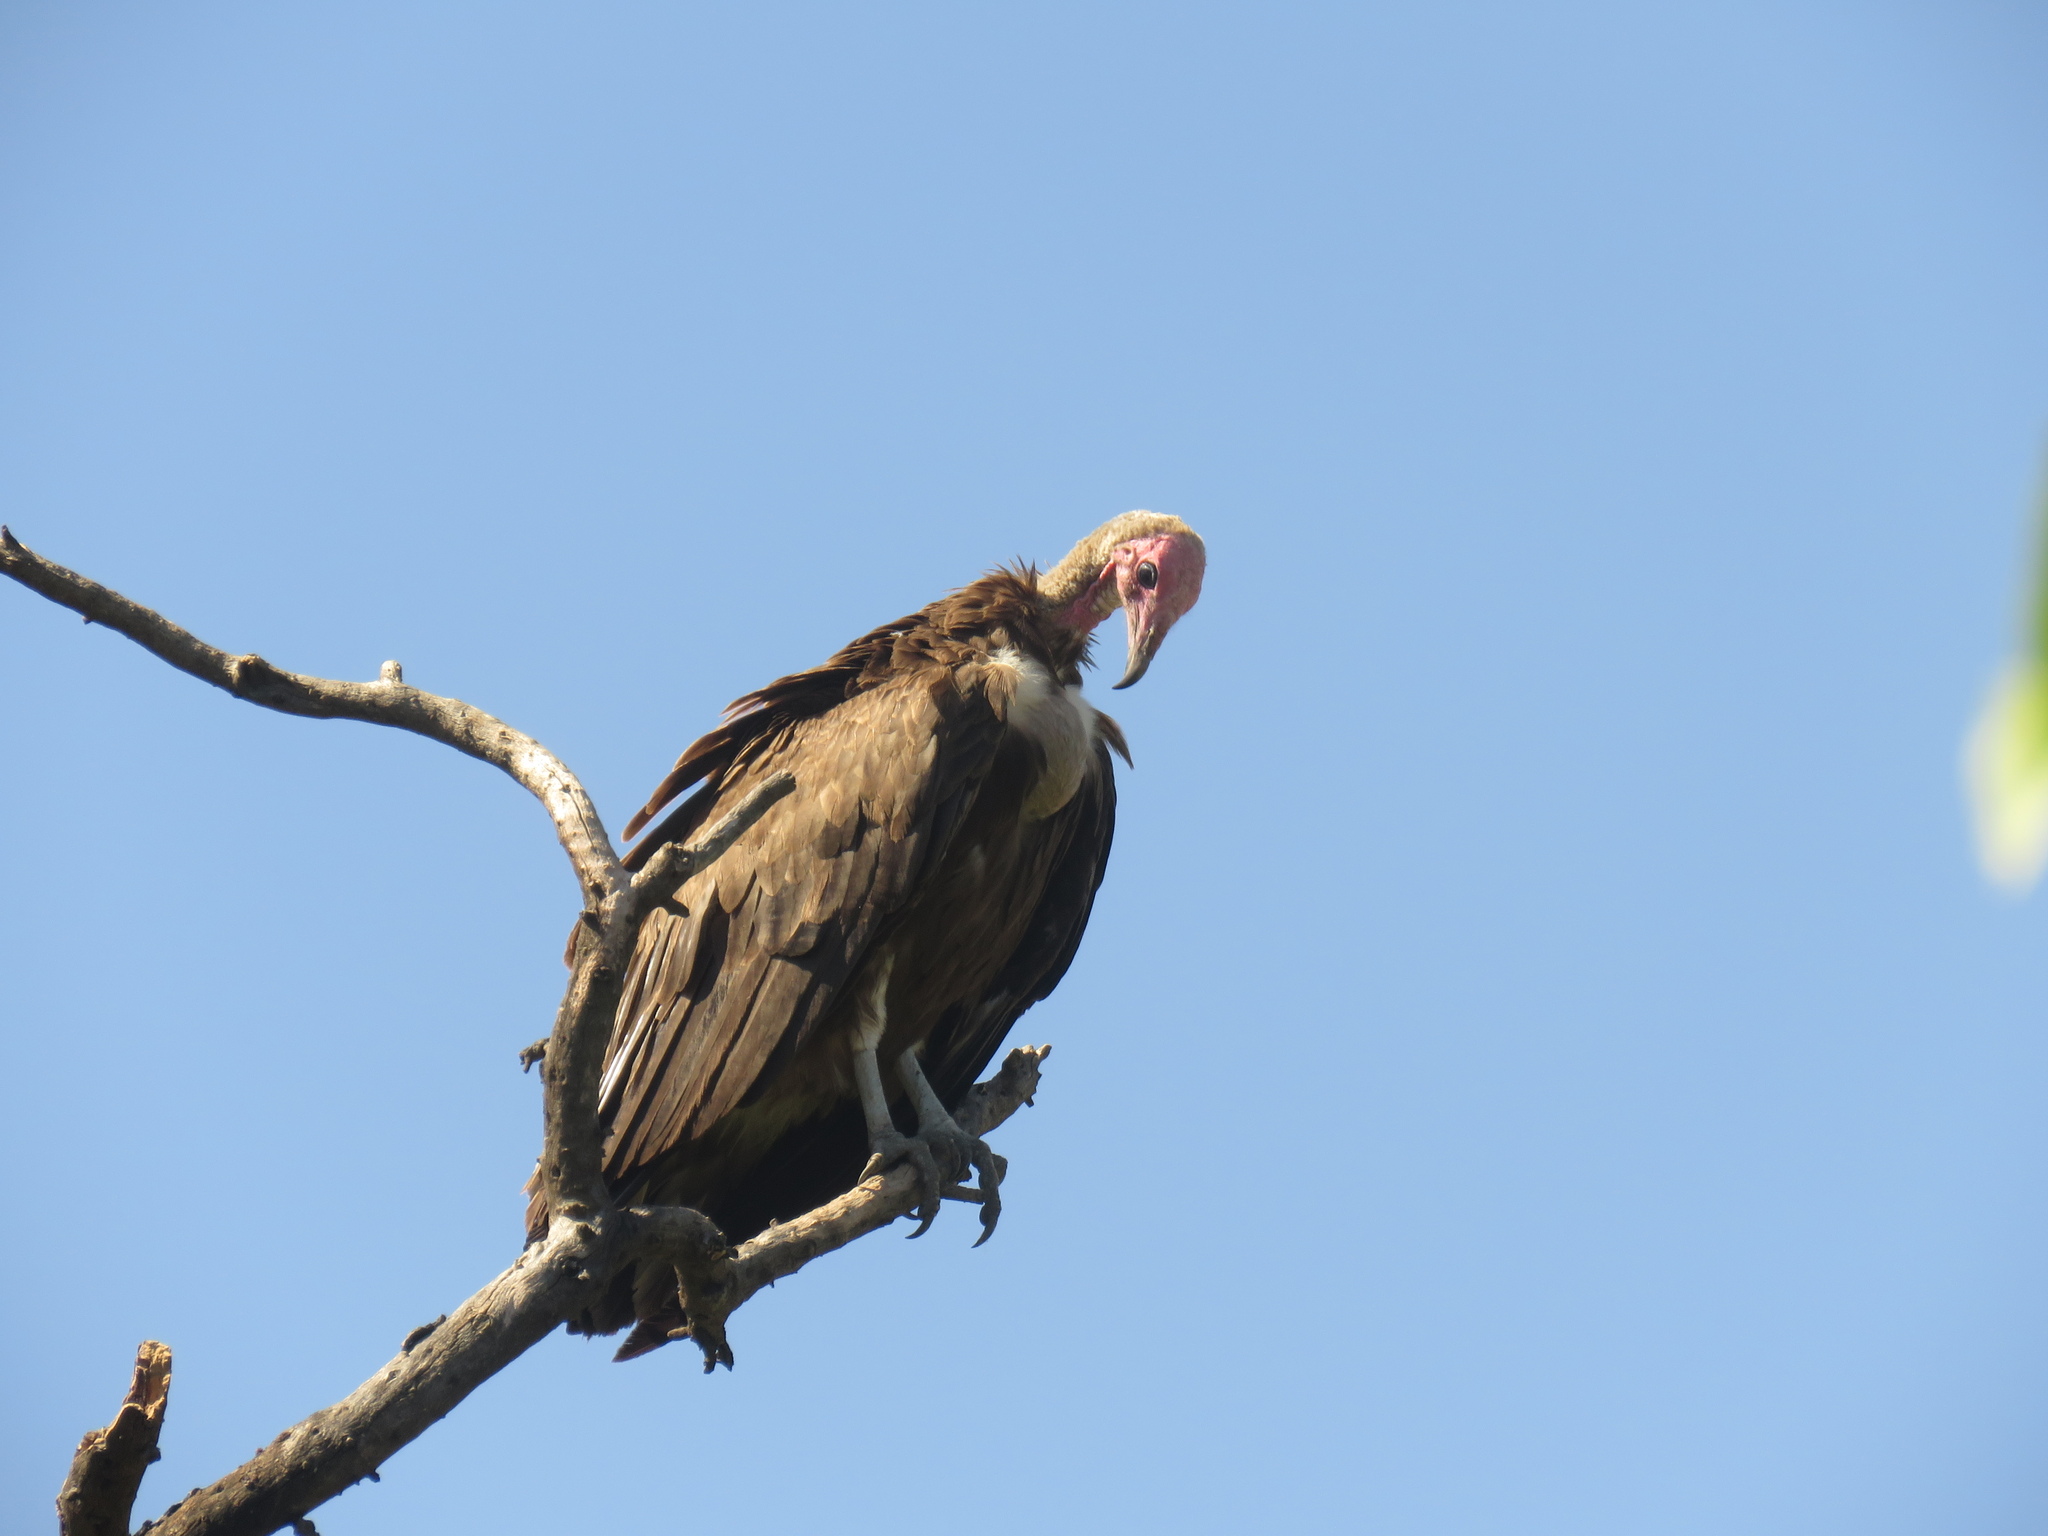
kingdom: Animalia
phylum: Chordata
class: Aves
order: Accipitriformes
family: Accipitridae
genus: Necrosyrtes
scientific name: Necrosyrtes monachus
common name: Hooded vulture
